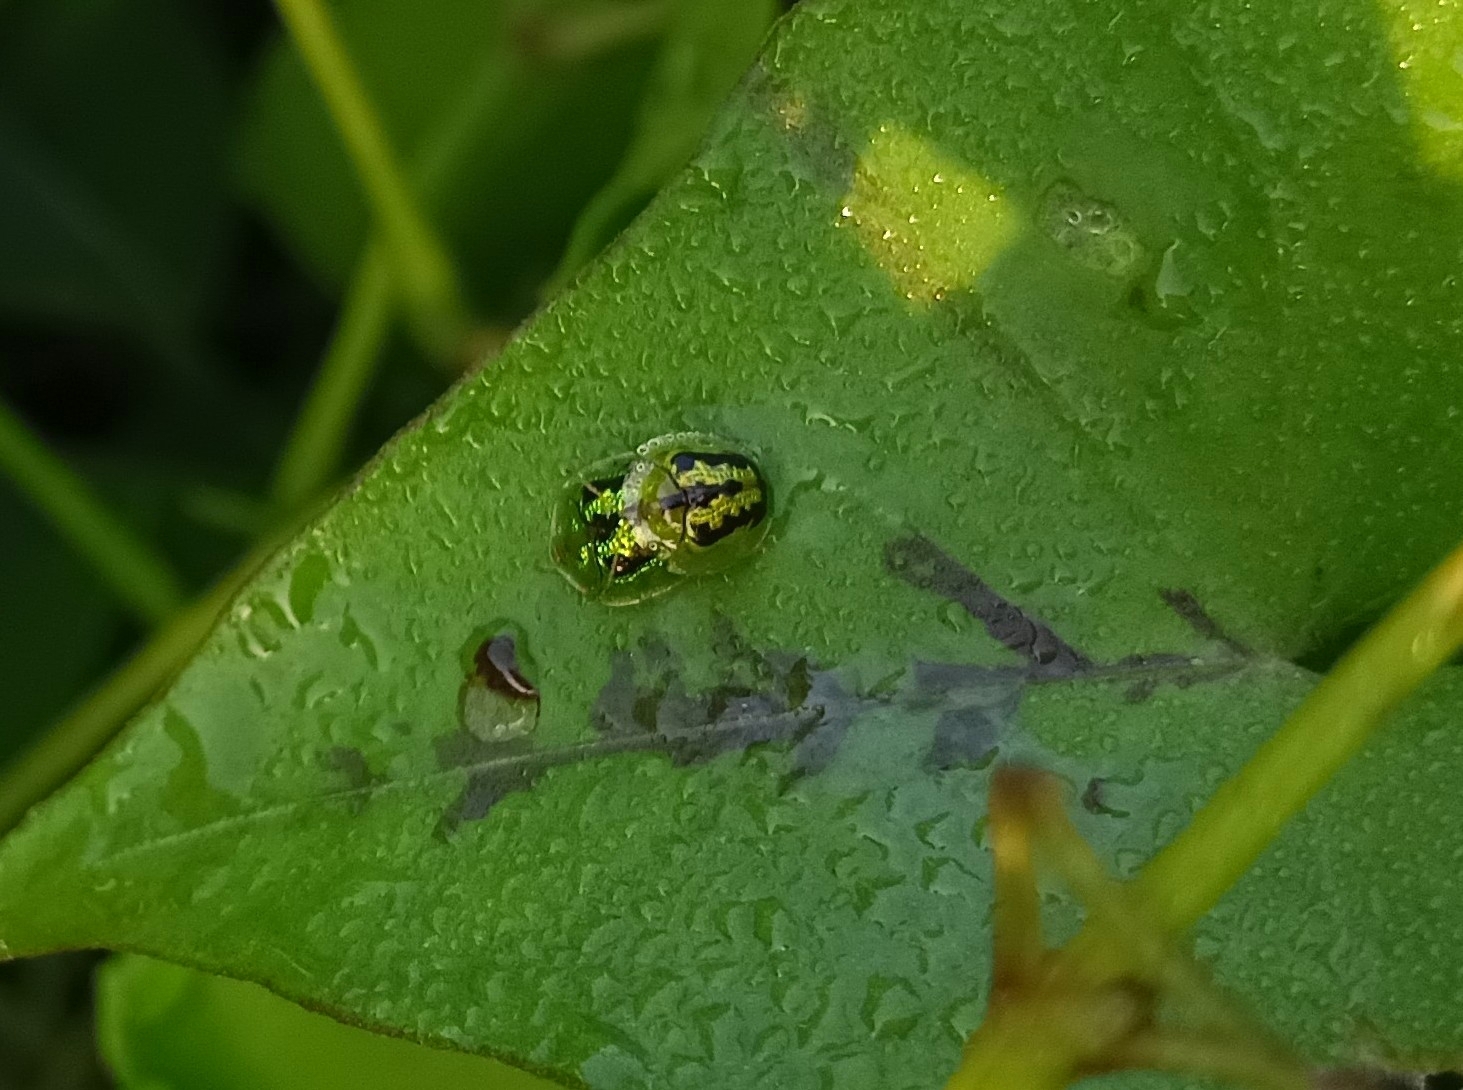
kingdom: Animalia
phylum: Arthropoda
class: Insecta
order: Coleoptera
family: Chrysomelidae
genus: Cassida
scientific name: Cassida circumdata
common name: Tortoise beetle
